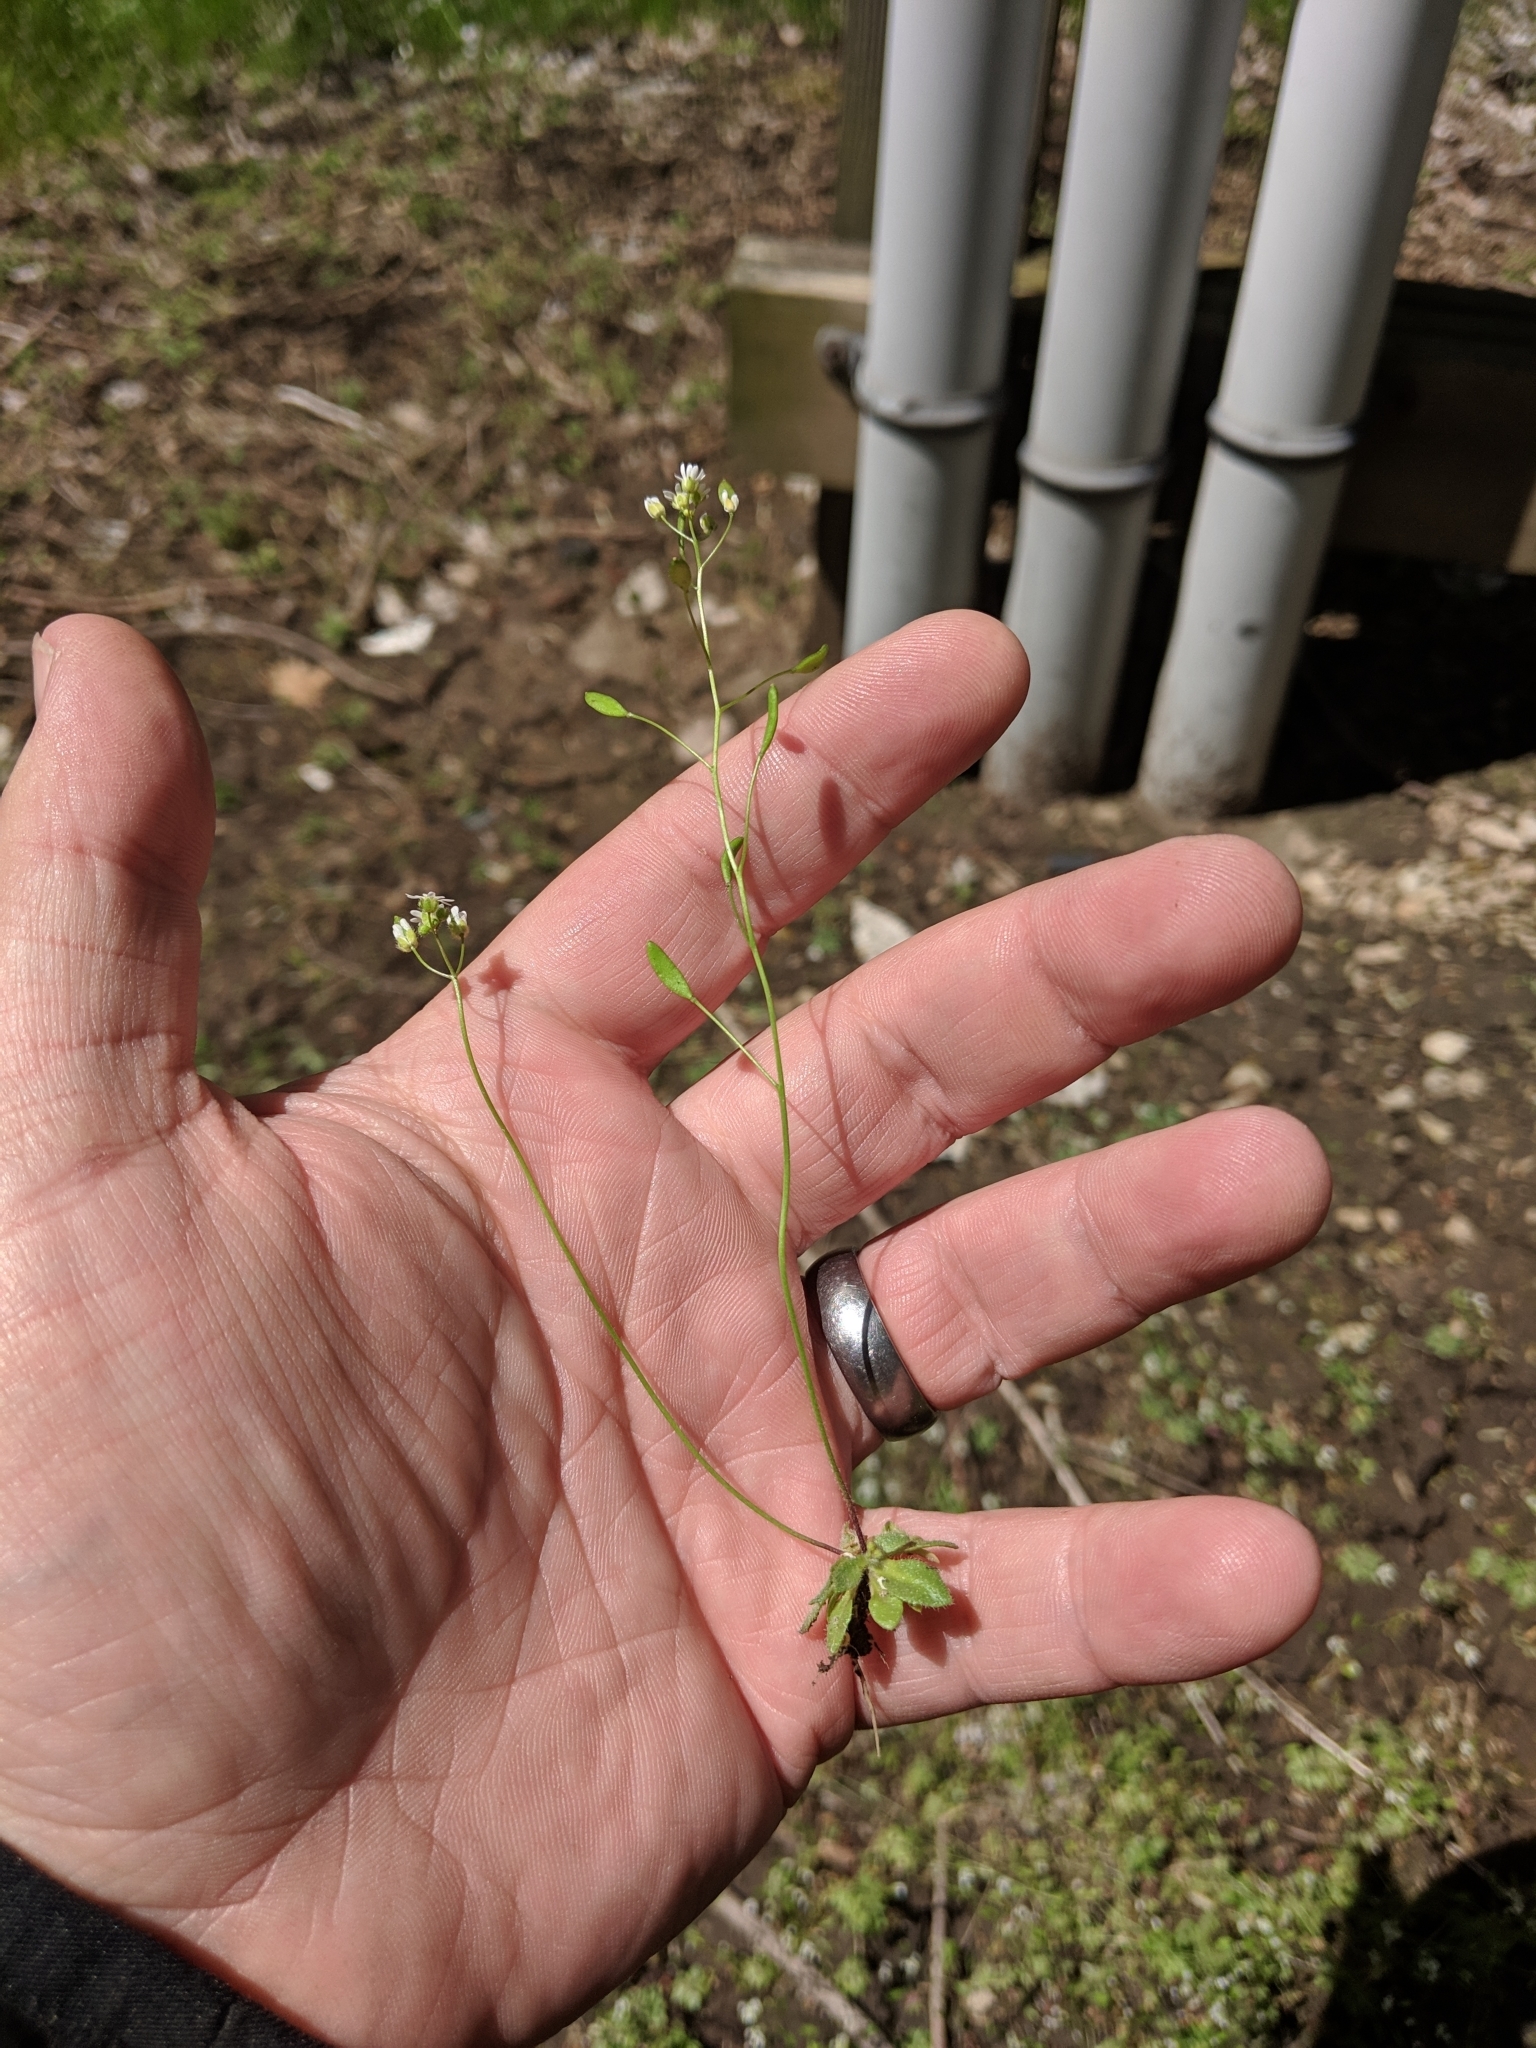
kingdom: Plantae
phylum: Tracheophyta
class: Magnoliopsida
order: Brassicales
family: Brassicaceae
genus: Draba
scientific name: Draba verna
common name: Spring draba
